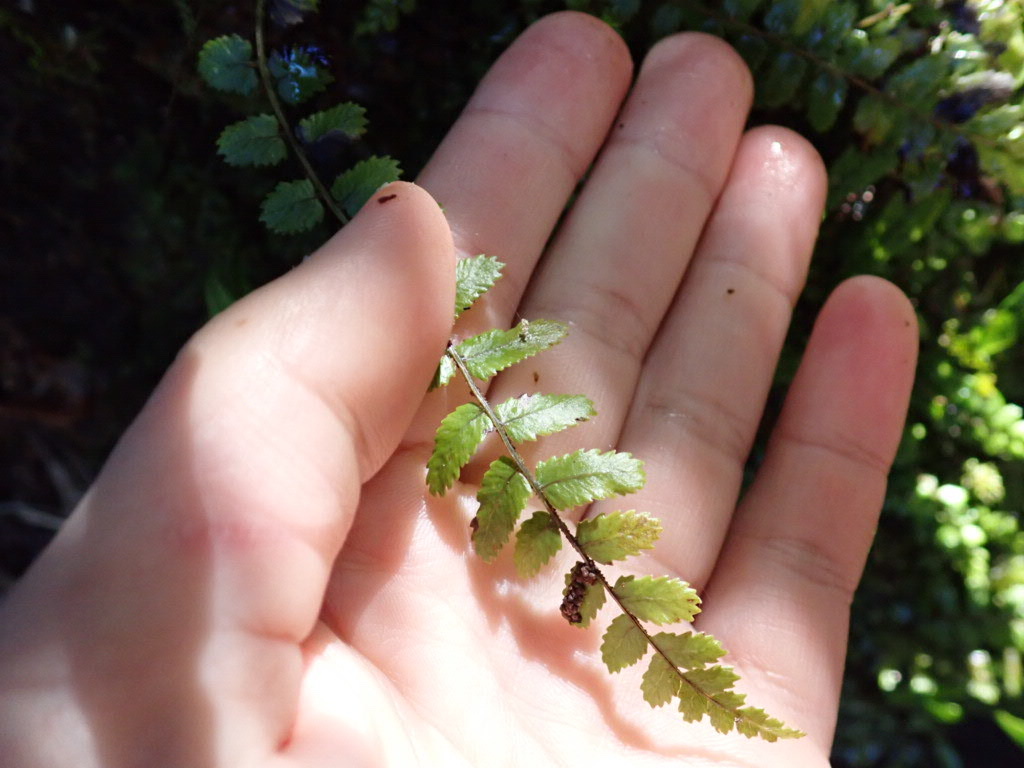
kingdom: Plantae
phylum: Tracheophyta
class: Polypodiopsida
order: Polypodiales
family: Blechnaceae
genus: Icarus
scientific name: Icarus filiformis
